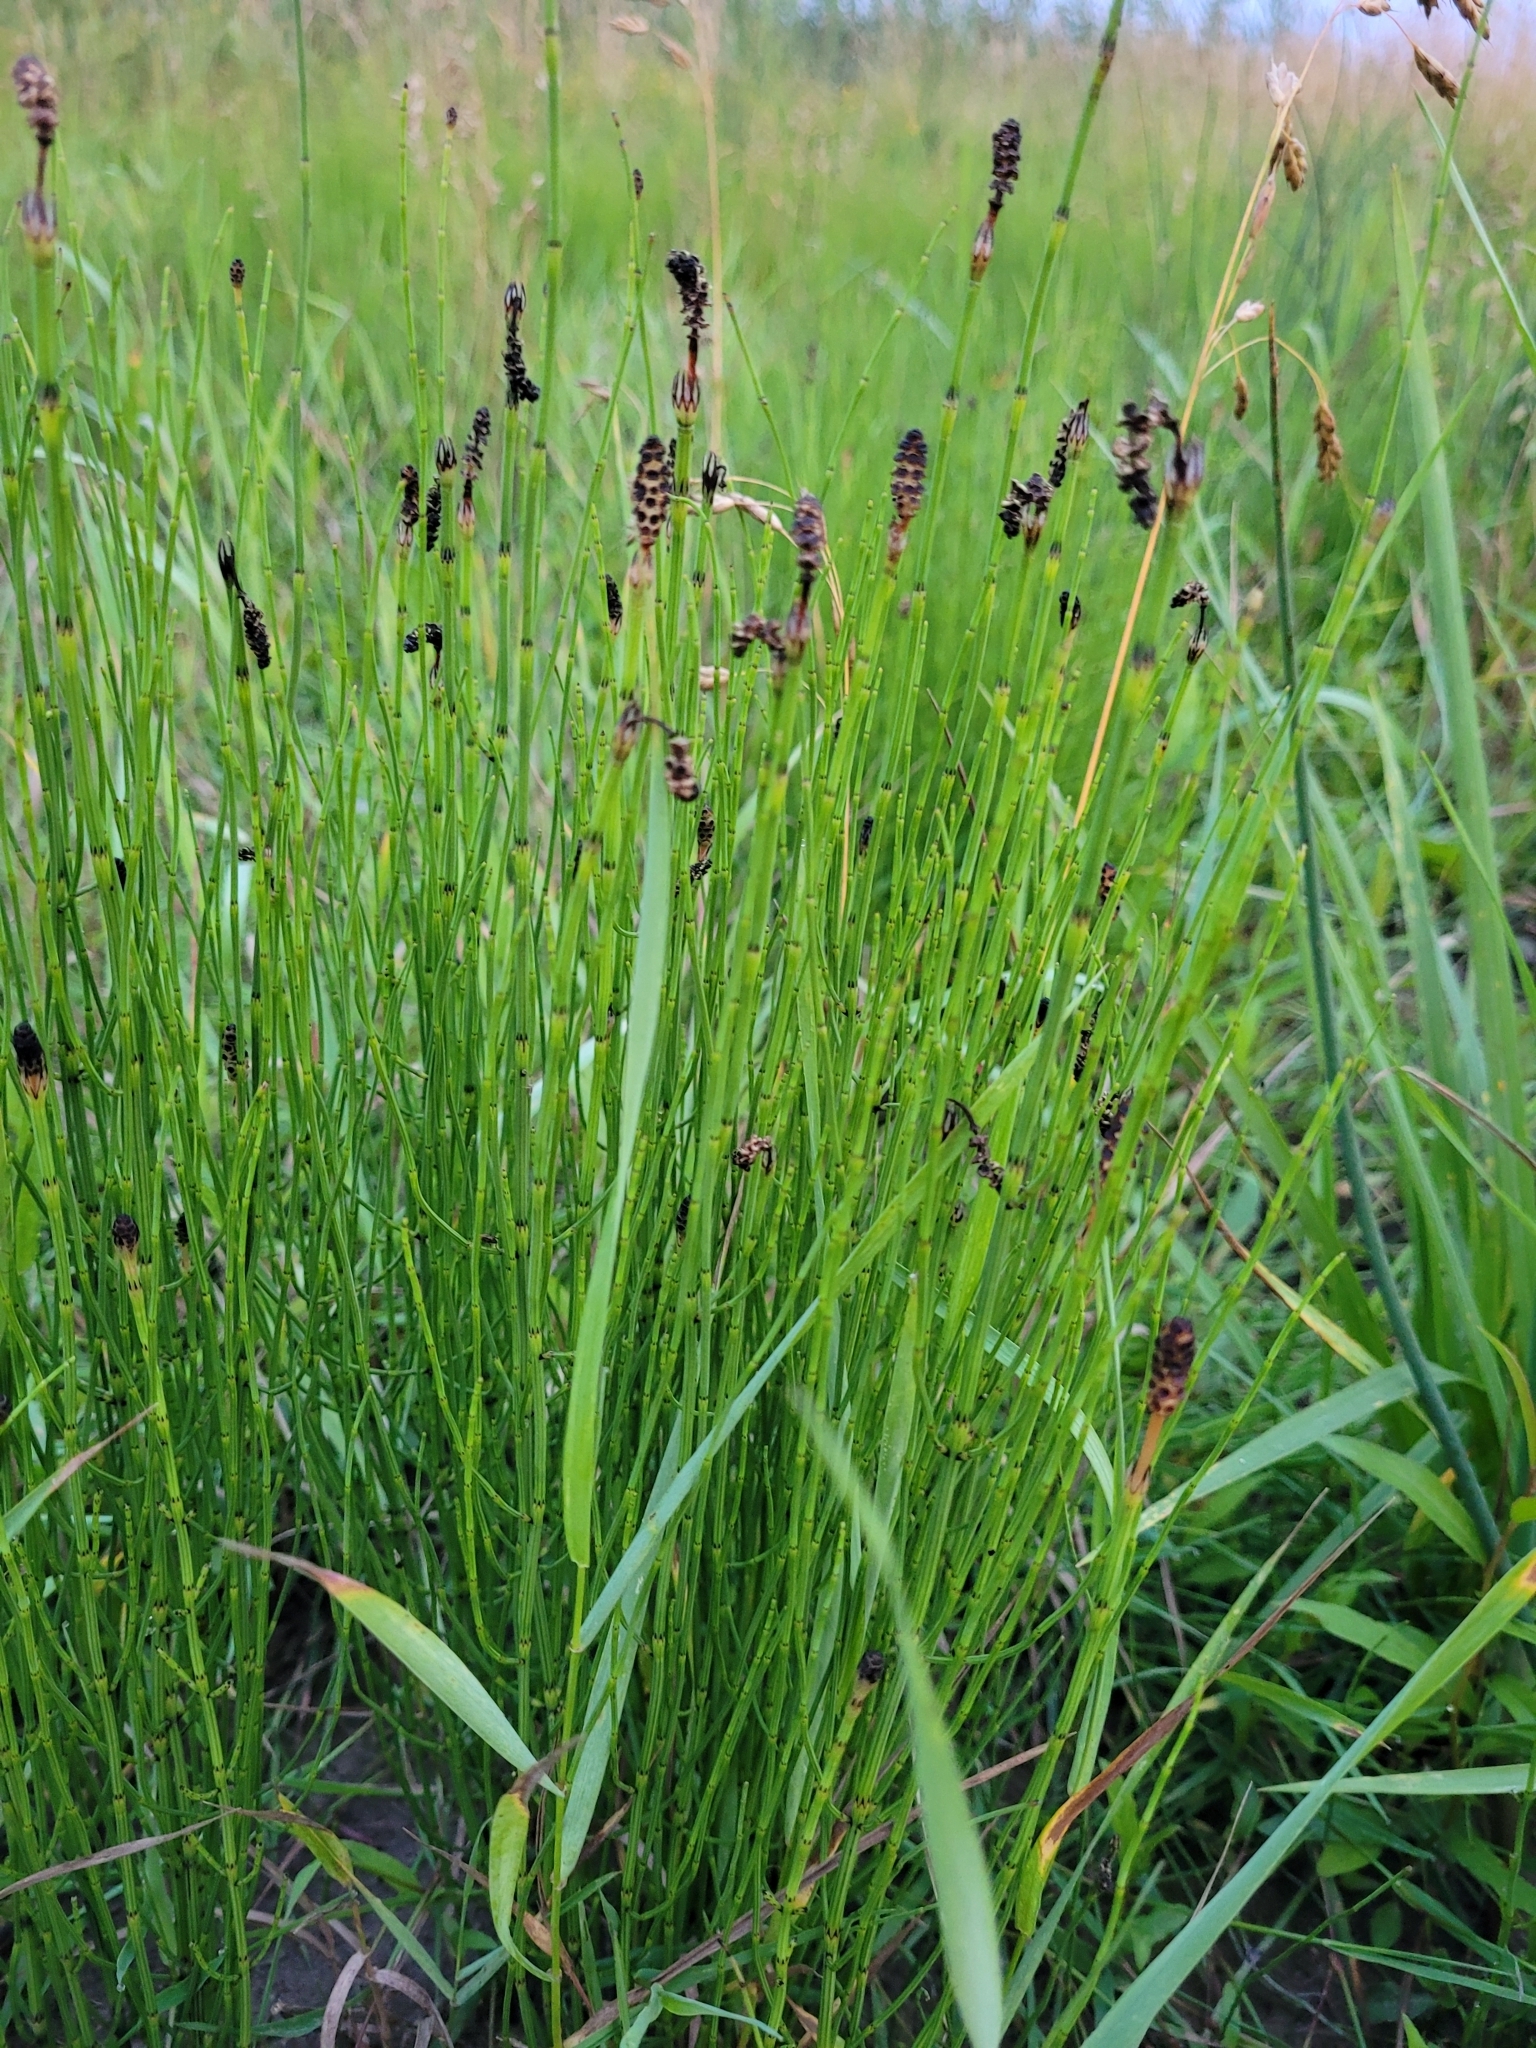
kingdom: Plantae
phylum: Tracheophyta
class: Polypodiopsida
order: Equisetales
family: Equisetaceae
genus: Equisetum
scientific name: Equisetum palustre
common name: Marsh horsetail
